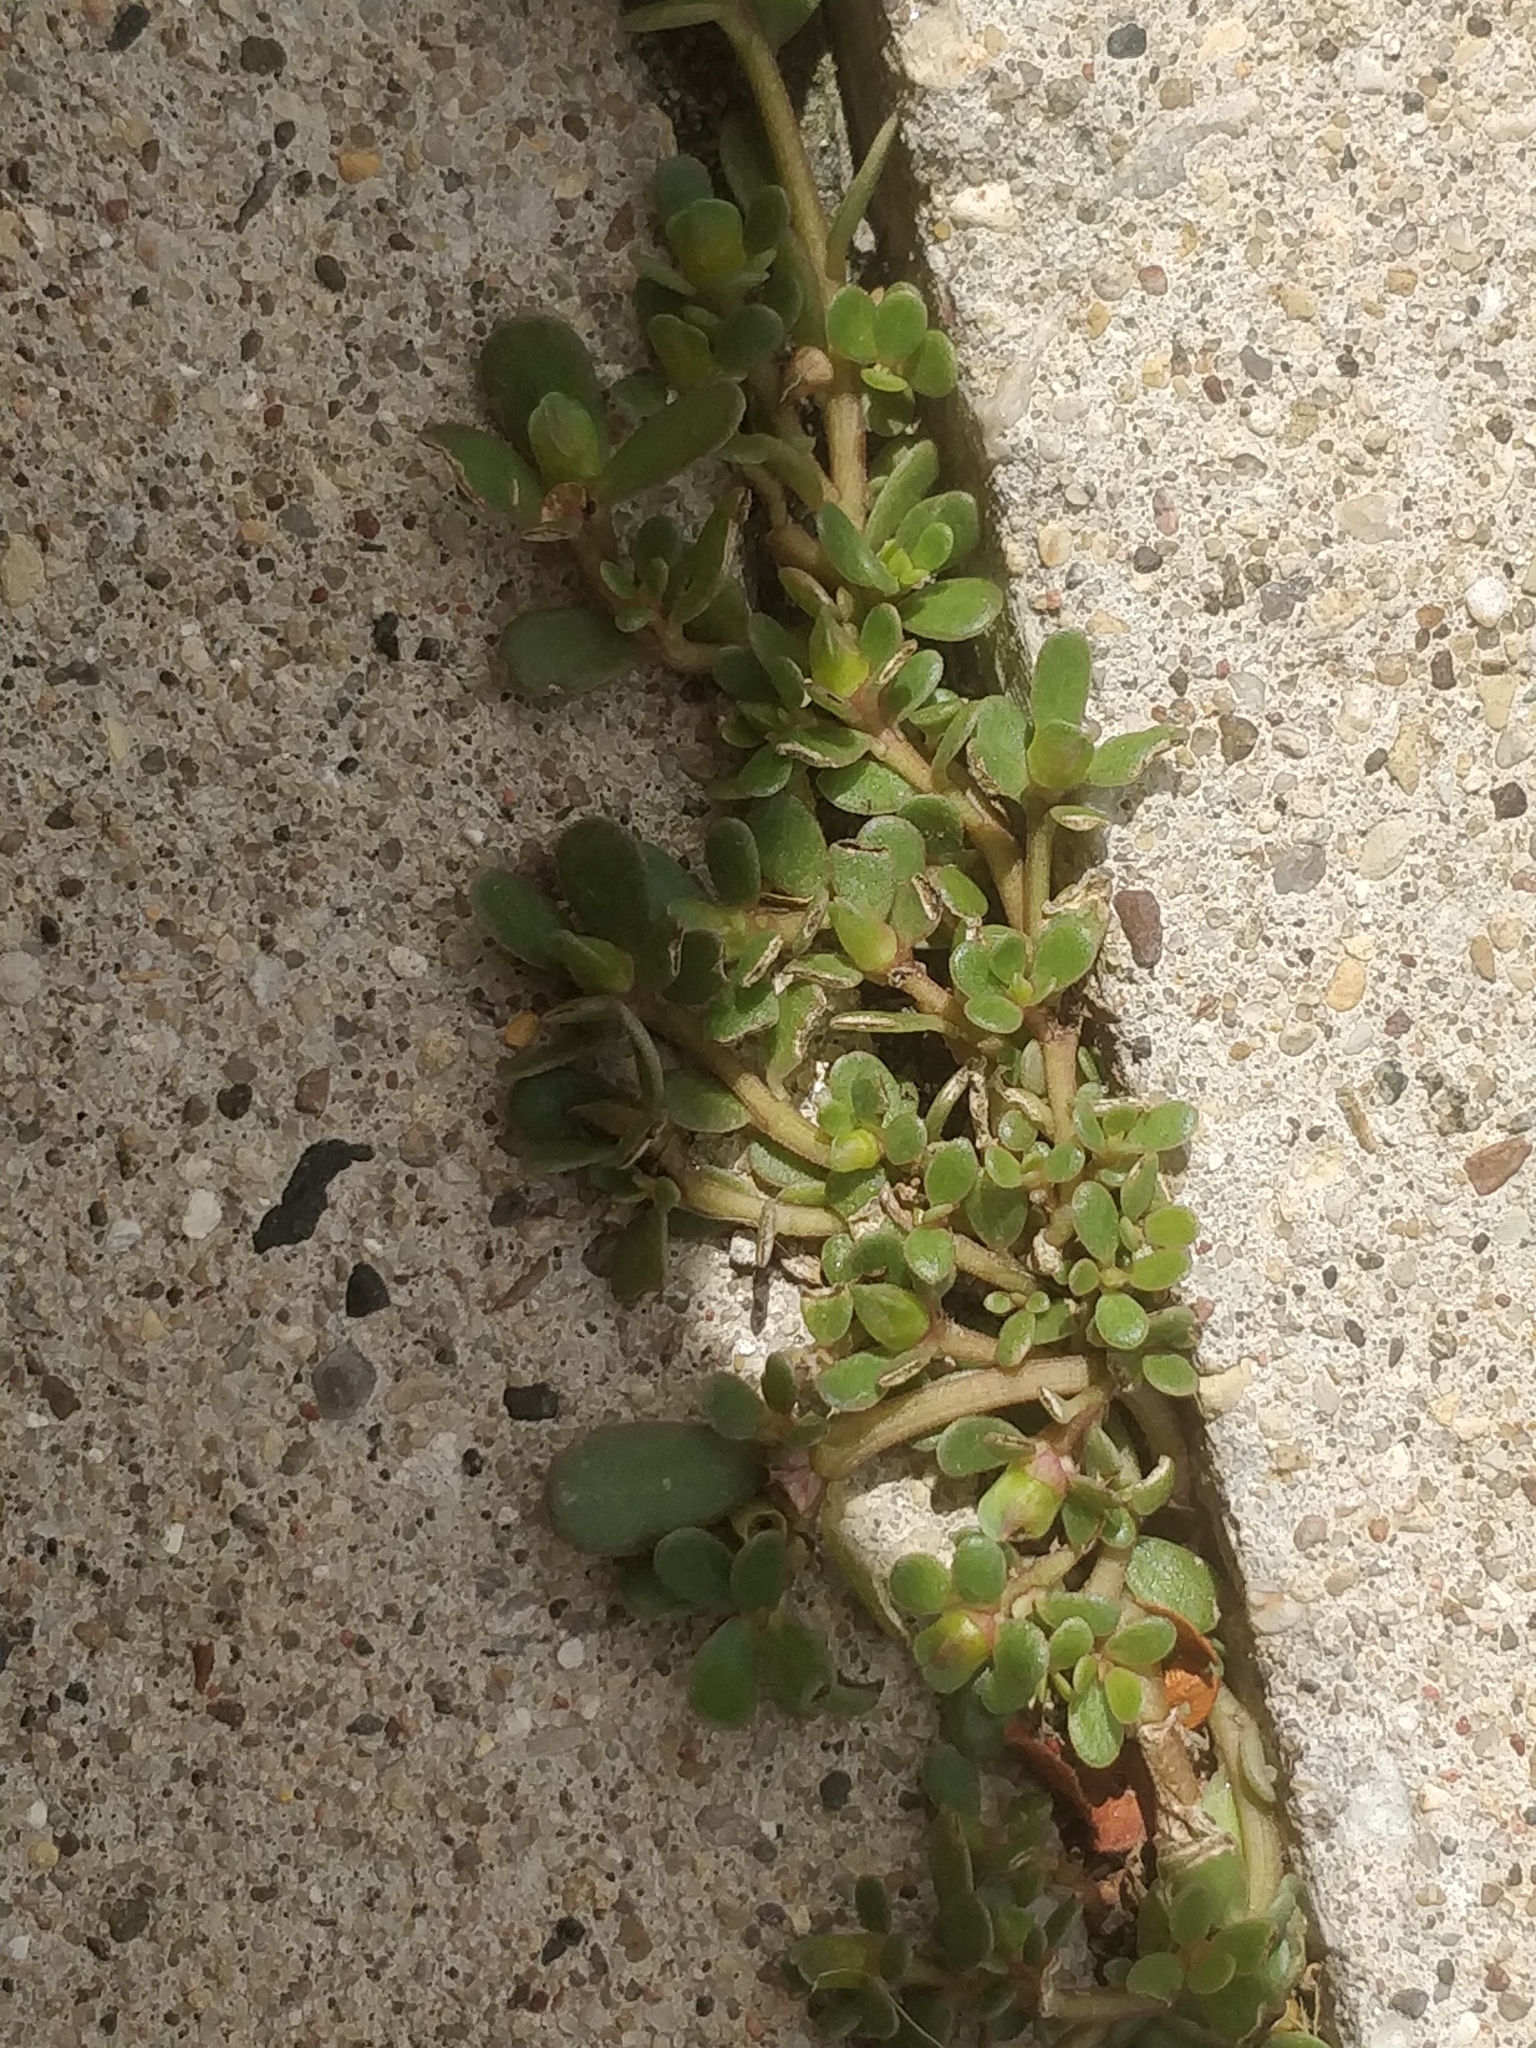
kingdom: Plantae
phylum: Tracheophyta
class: Magnoliopsida
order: Caryophyllales
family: Portulacaceae
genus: Portulaca
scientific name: Portulaca oleracea
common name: Common purslane
